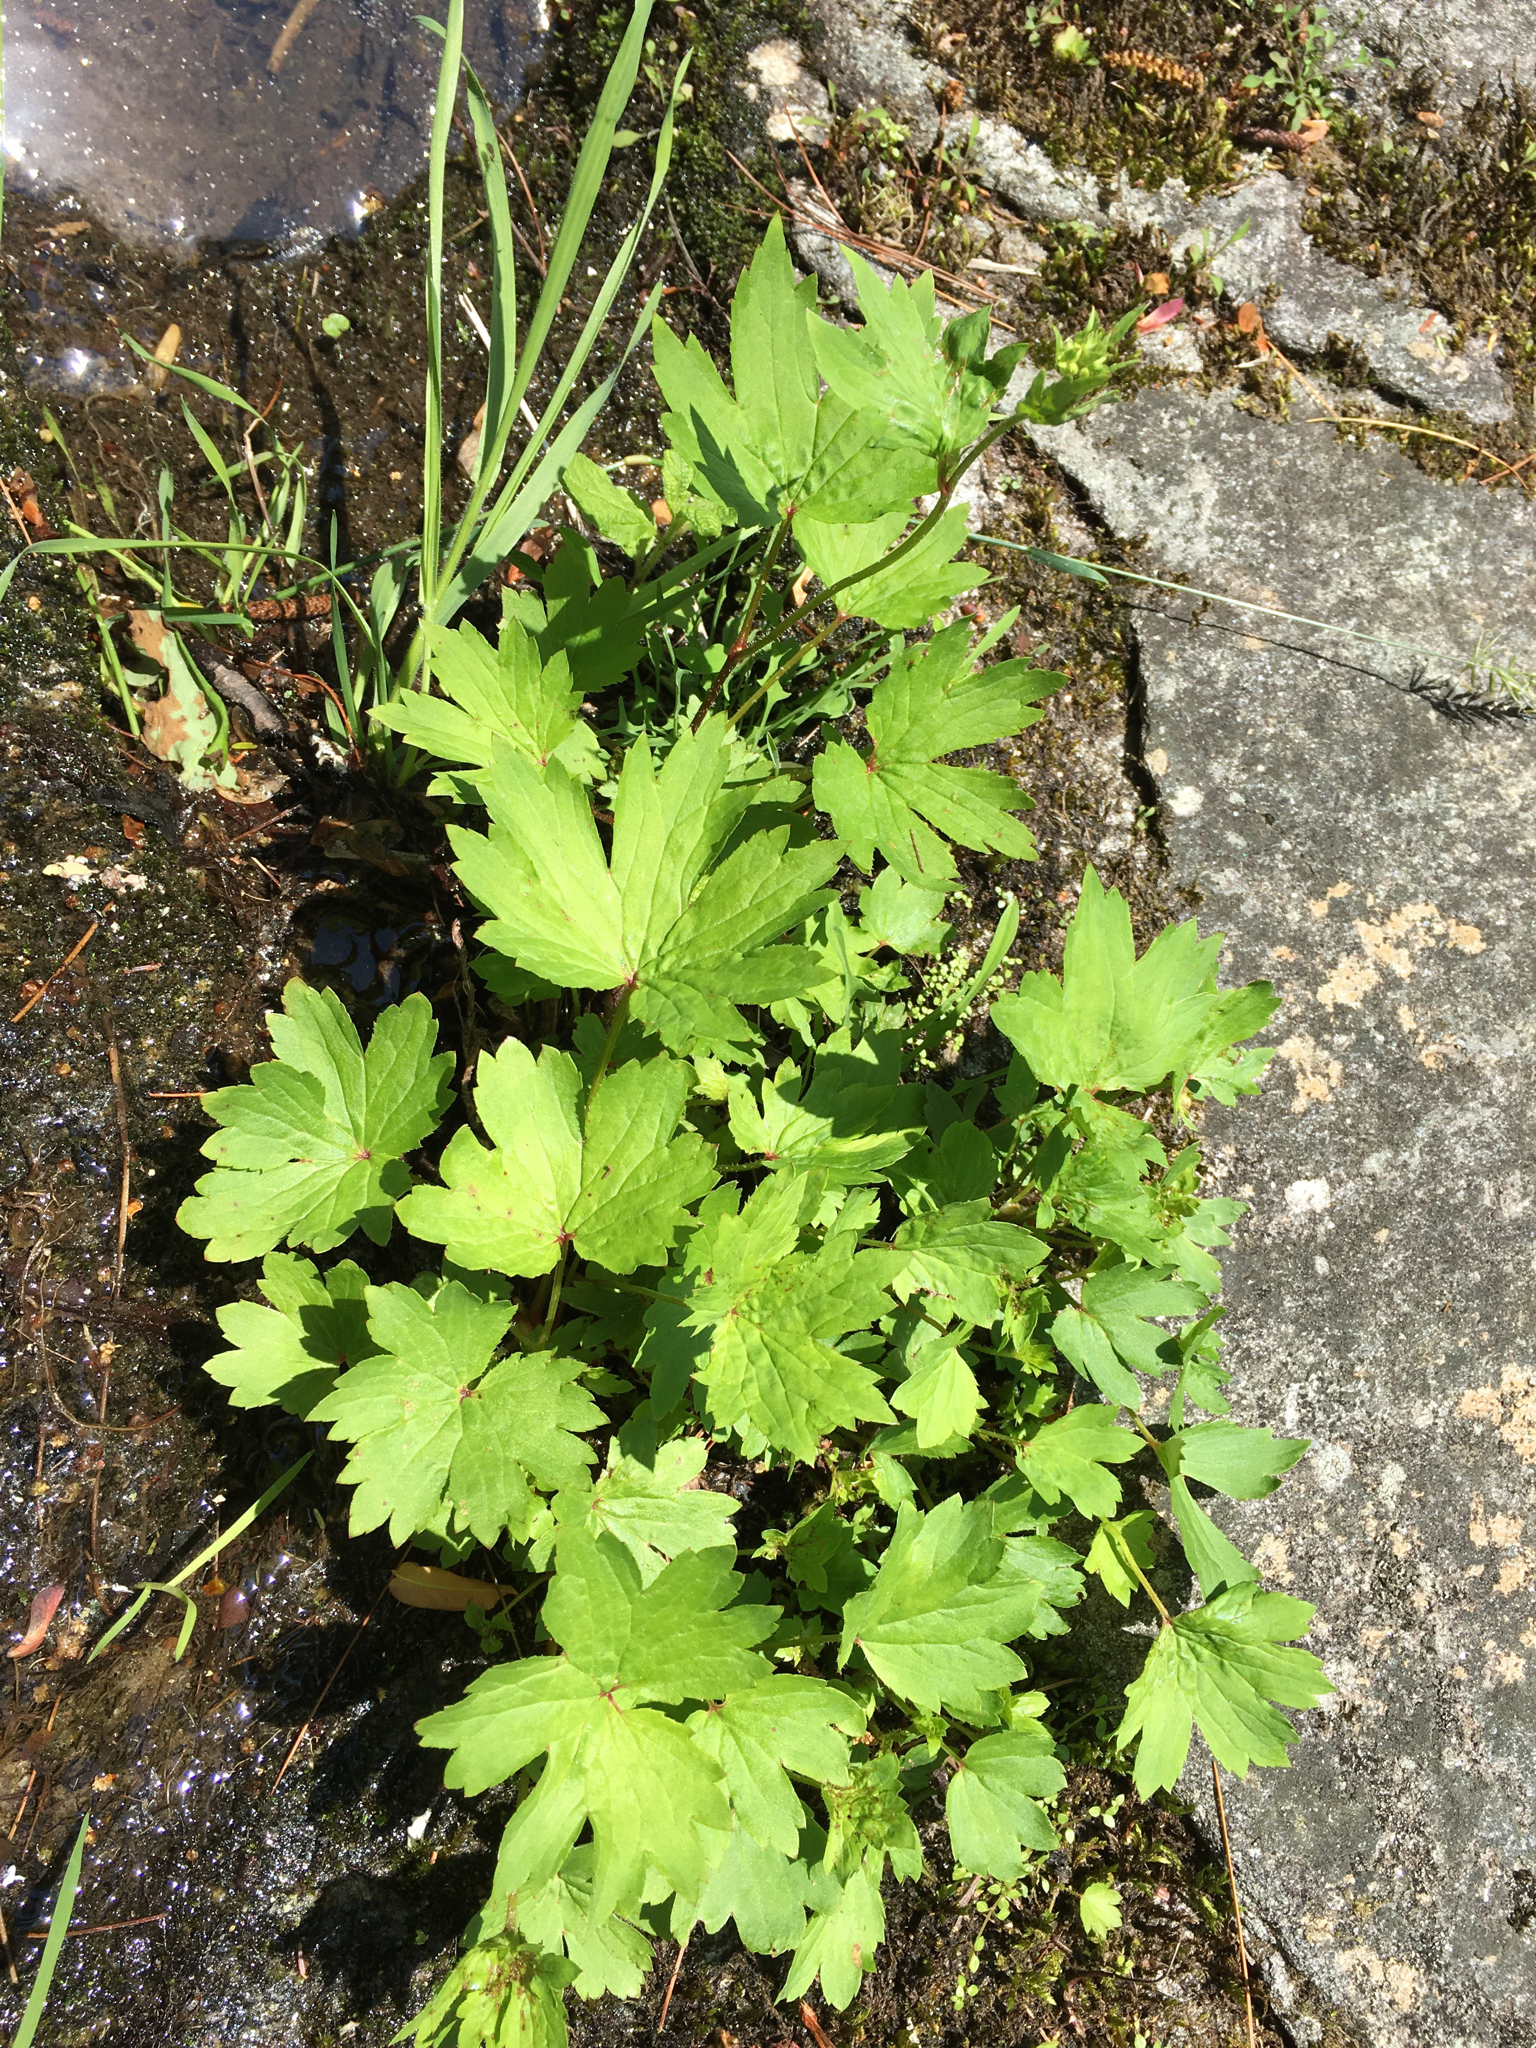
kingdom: Plantae
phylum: Tracheophyta
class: Magnoliopsida
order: Saxifragales
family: Saxifragaceae
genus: Boykinia
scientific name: Boykinia aconitifolia
